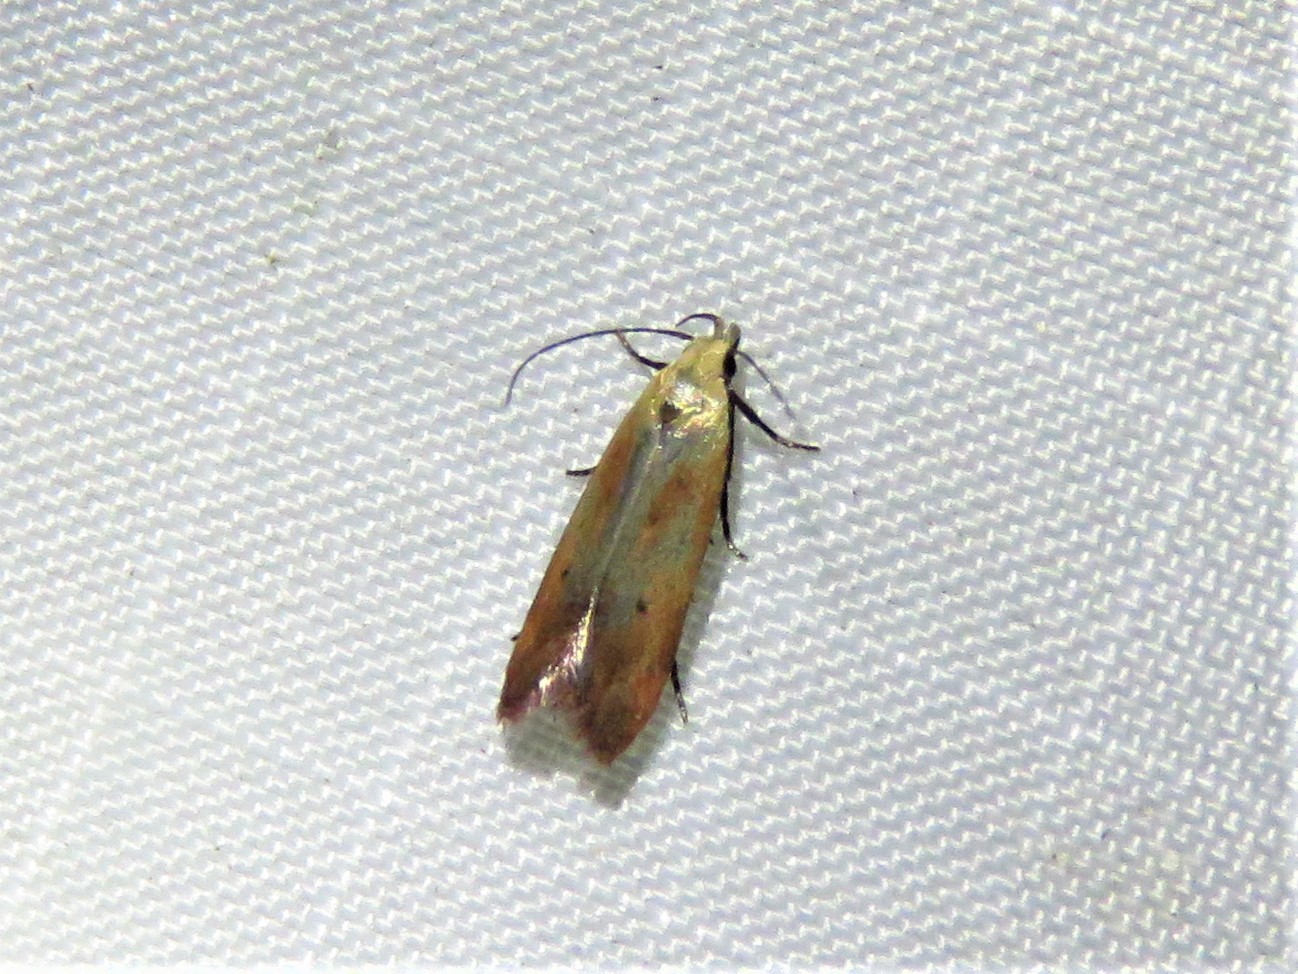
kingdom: Animalia
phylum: Arthropoda
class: Insecta
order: Lepidoptera
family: Gelechiidae
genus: Anacampsis
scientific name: Anacampsis fullonella
